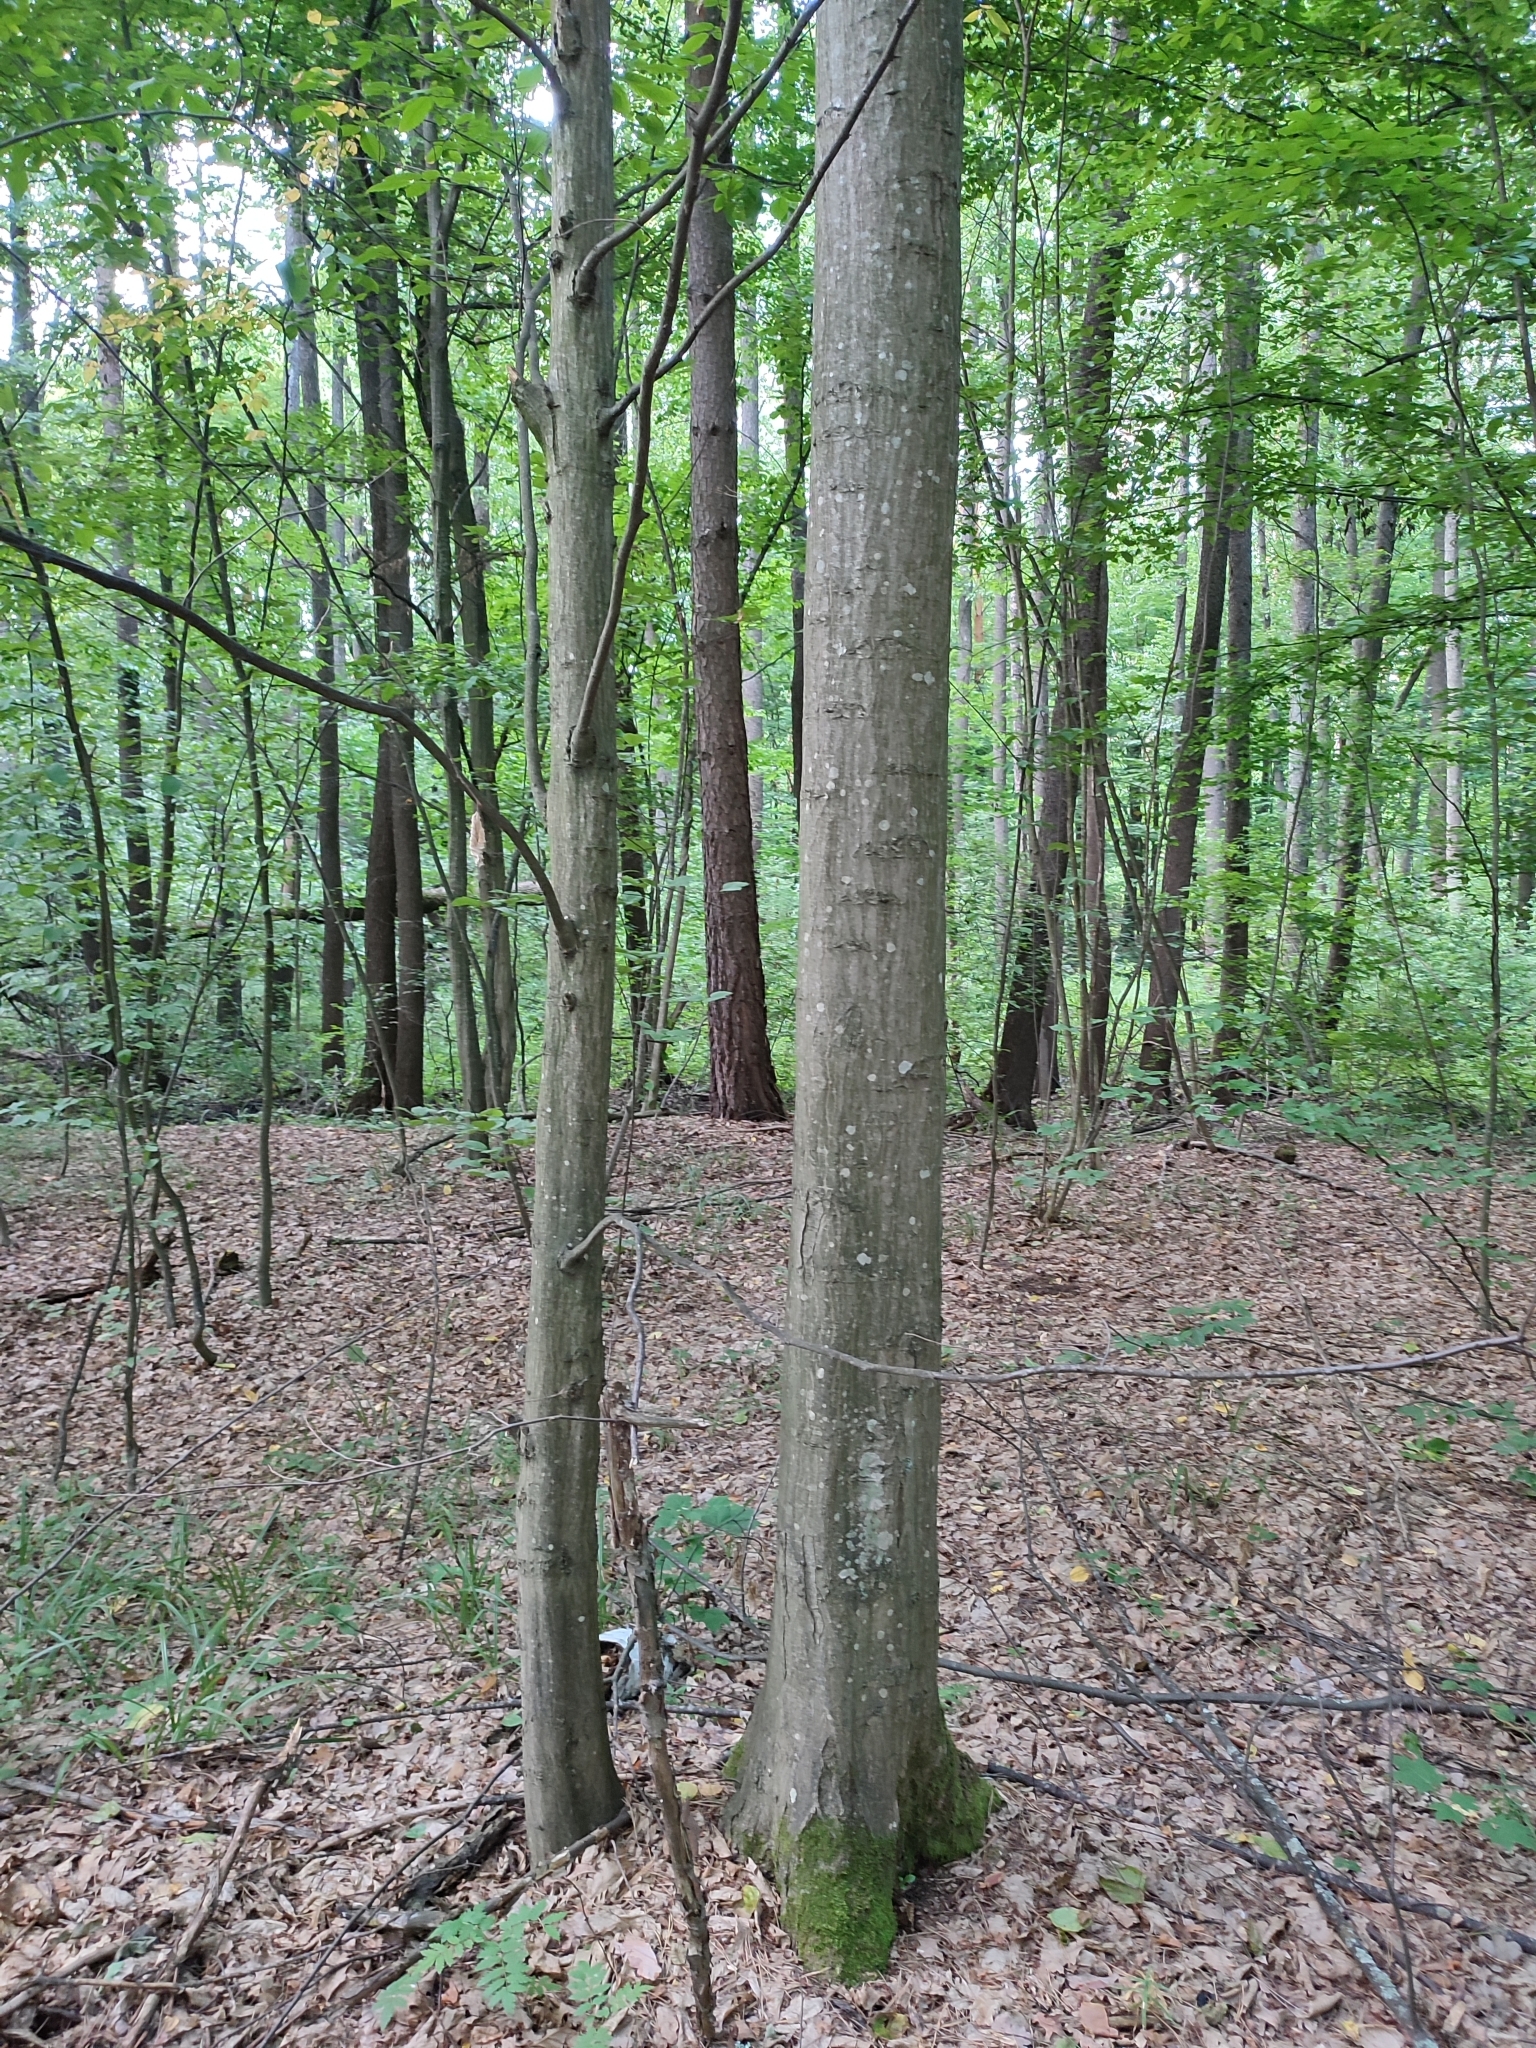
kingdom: Plantae
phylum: Tracheophyta
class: Magnoliopsida
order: Fagales
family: Betulaceae
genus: Carpinus
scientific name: Carpinus betulus
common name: Hornbeam
